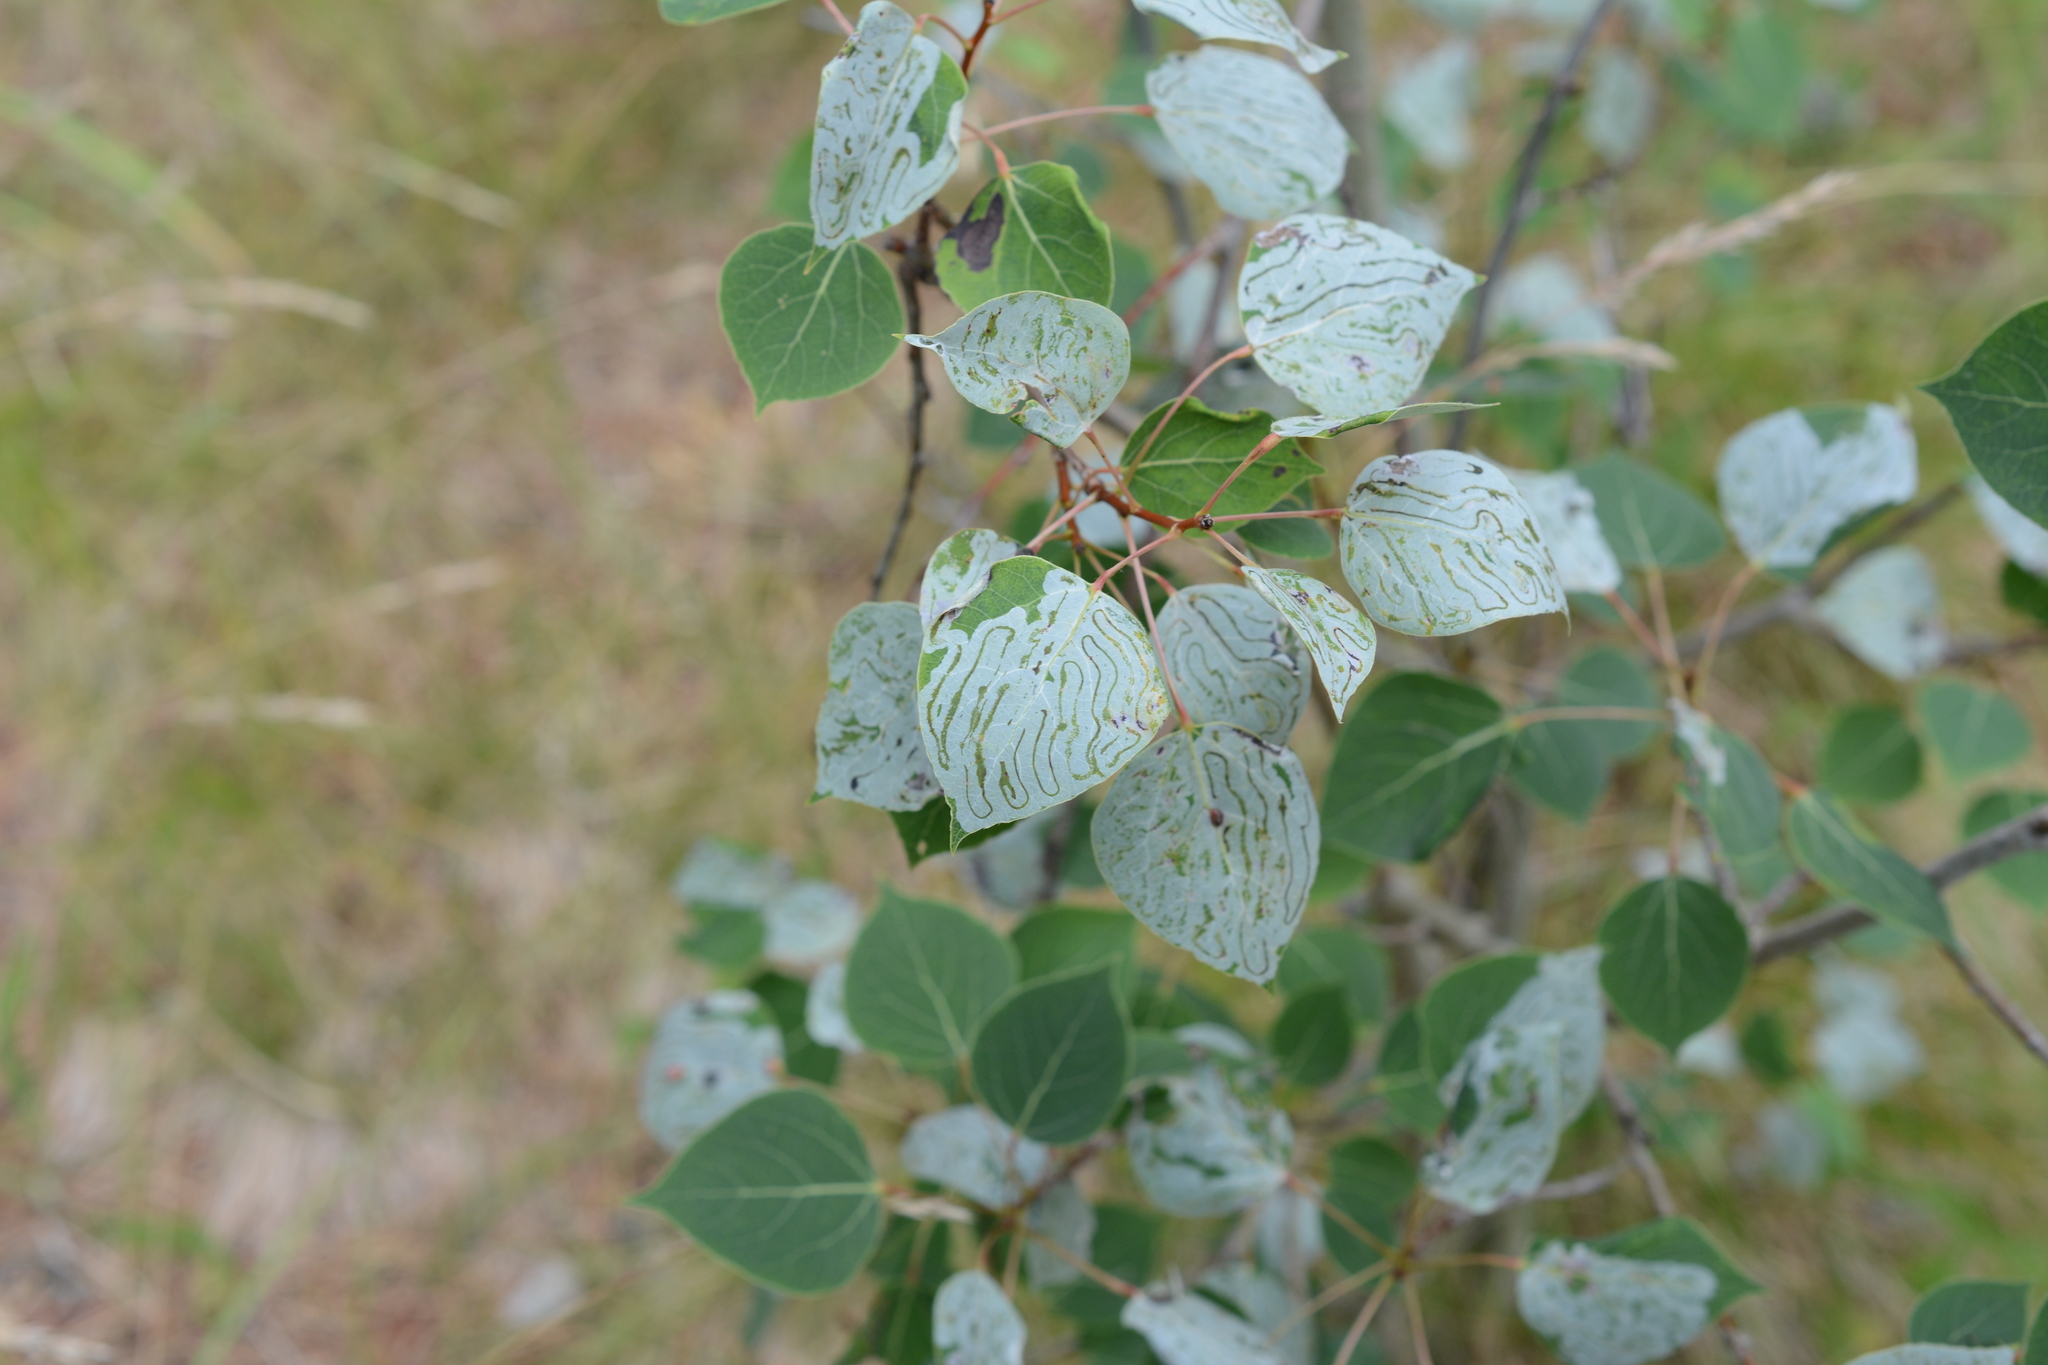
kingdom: Animalia
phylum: Arthropoda
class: Insecta
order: Lepidoptera
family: Gracillariidae
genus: Phyllocnistis
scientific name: Phyllocnistis populiella
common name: Aspen serpentine leafminer moth
